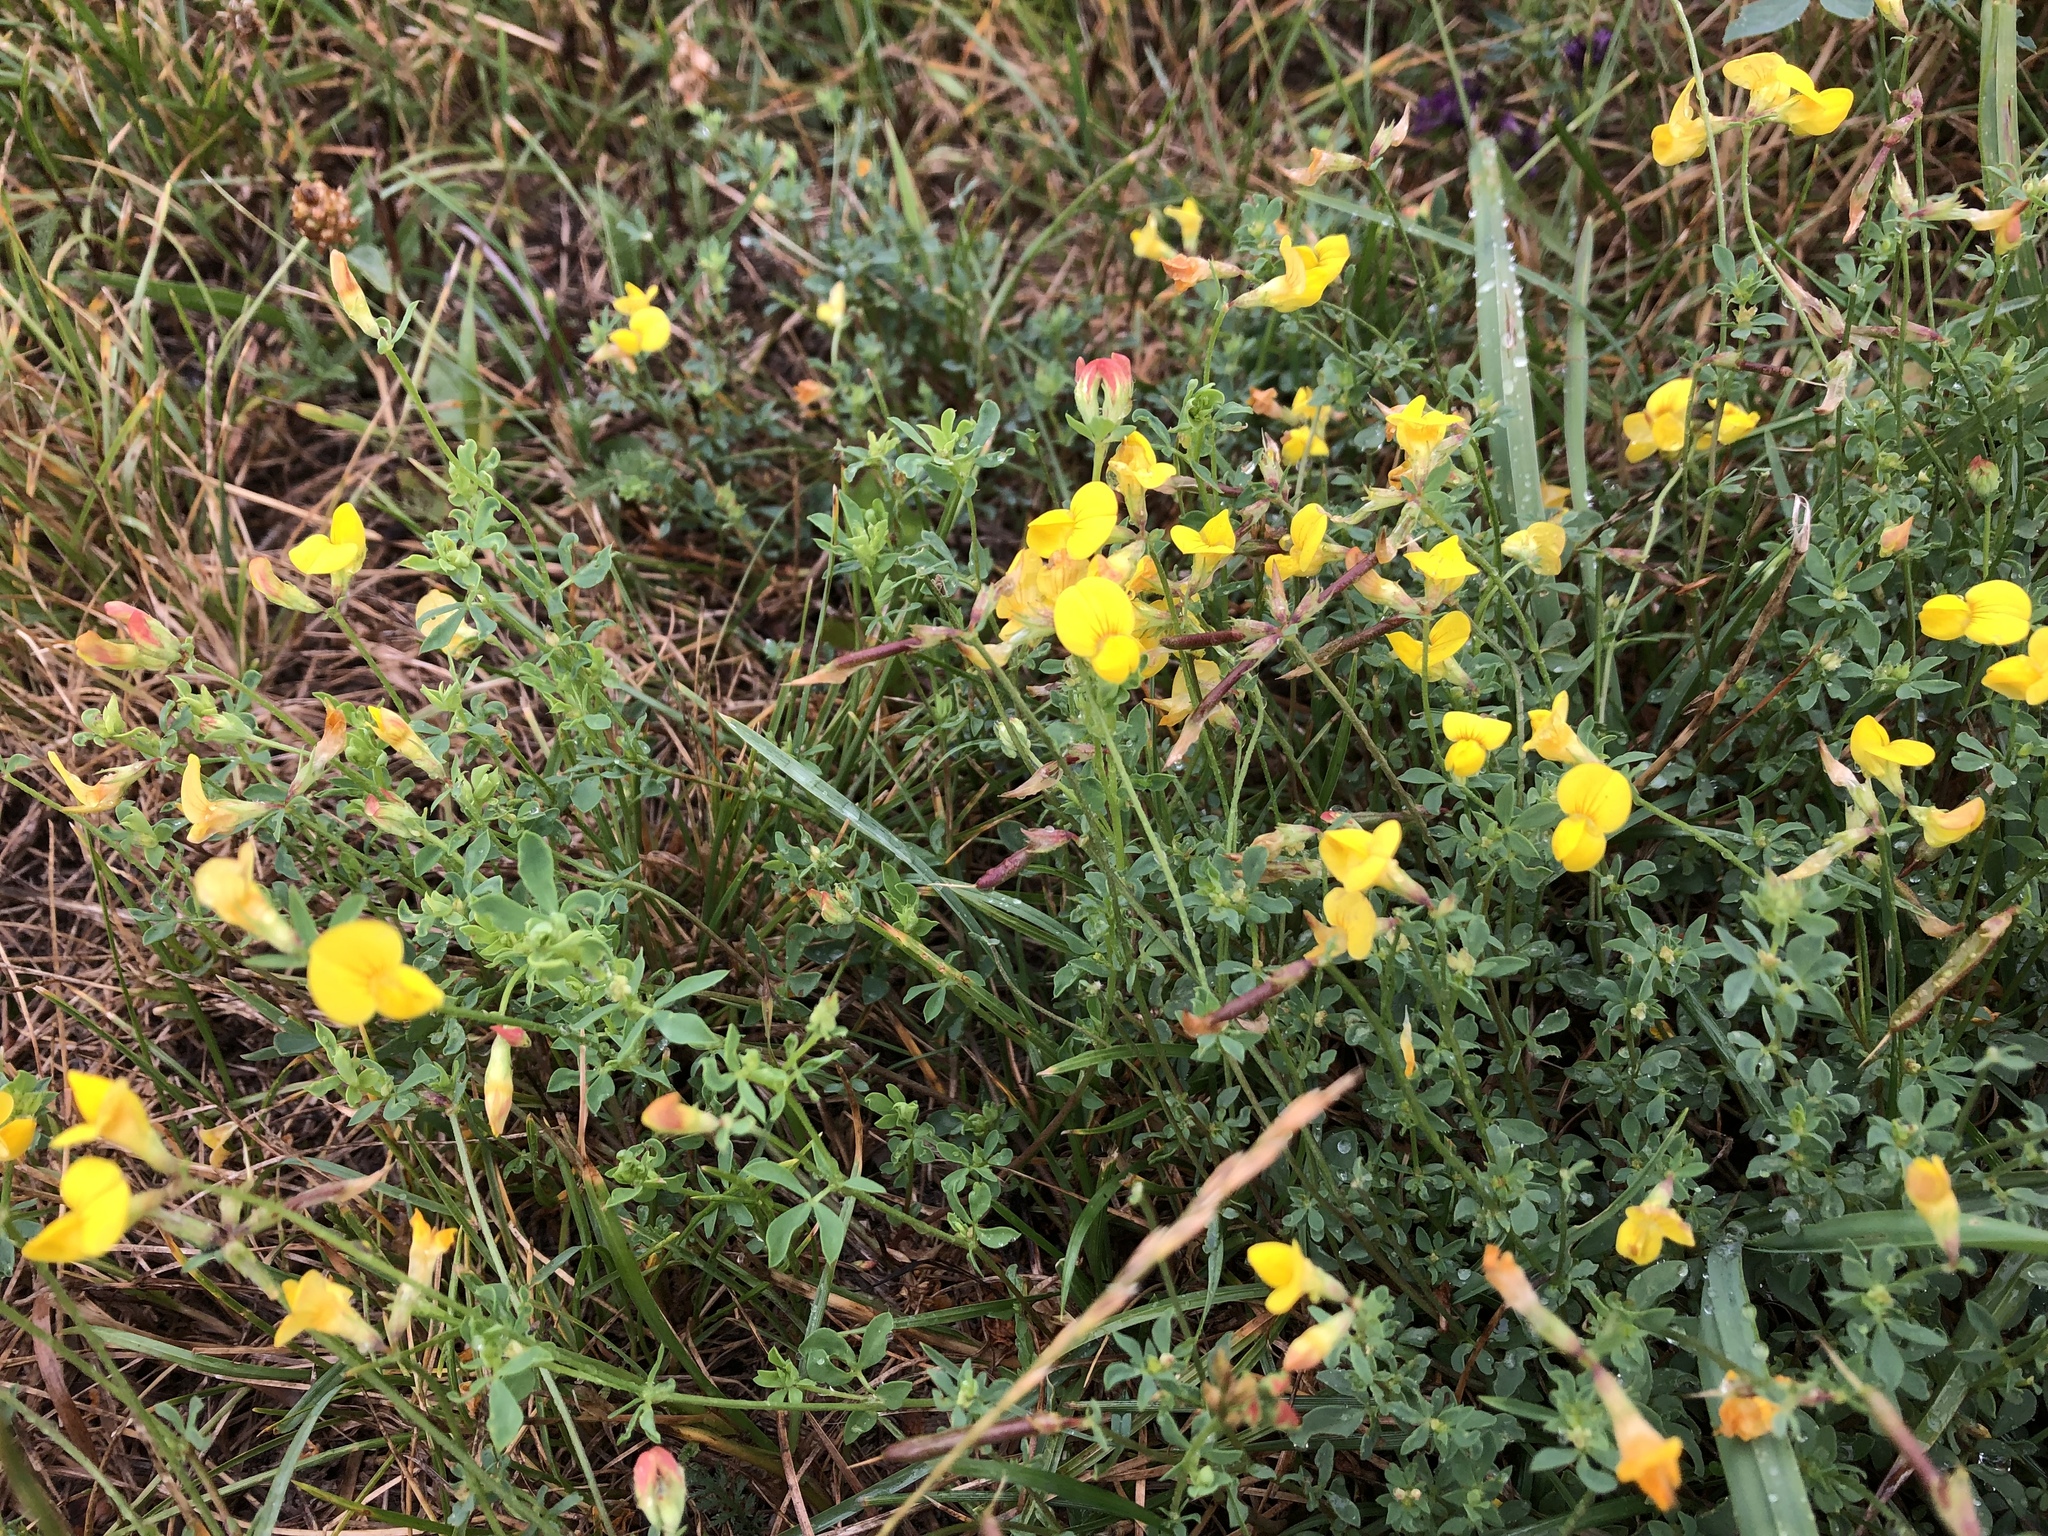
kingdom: Plantae
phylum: Tracheophyta
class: Magnoliopsida
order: Fabales
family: Fabaceae
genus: Lotus
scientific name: Lotus corniculatus
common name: Common bird's-foot-trefoil
